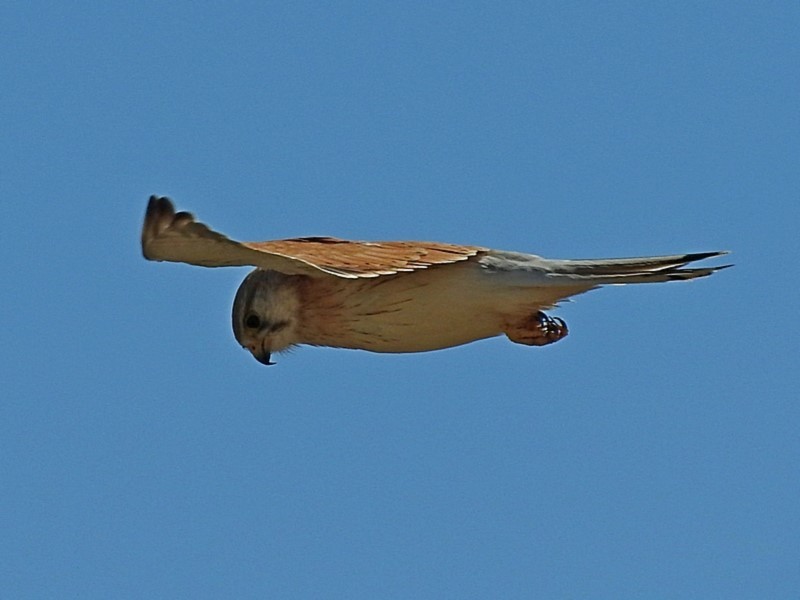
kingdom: Animalia
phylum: Chordata
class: Aves
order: Falconiformes
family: Falconidae
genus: Falco
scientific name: Falco cenchroides
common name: Nankeen kestrel
